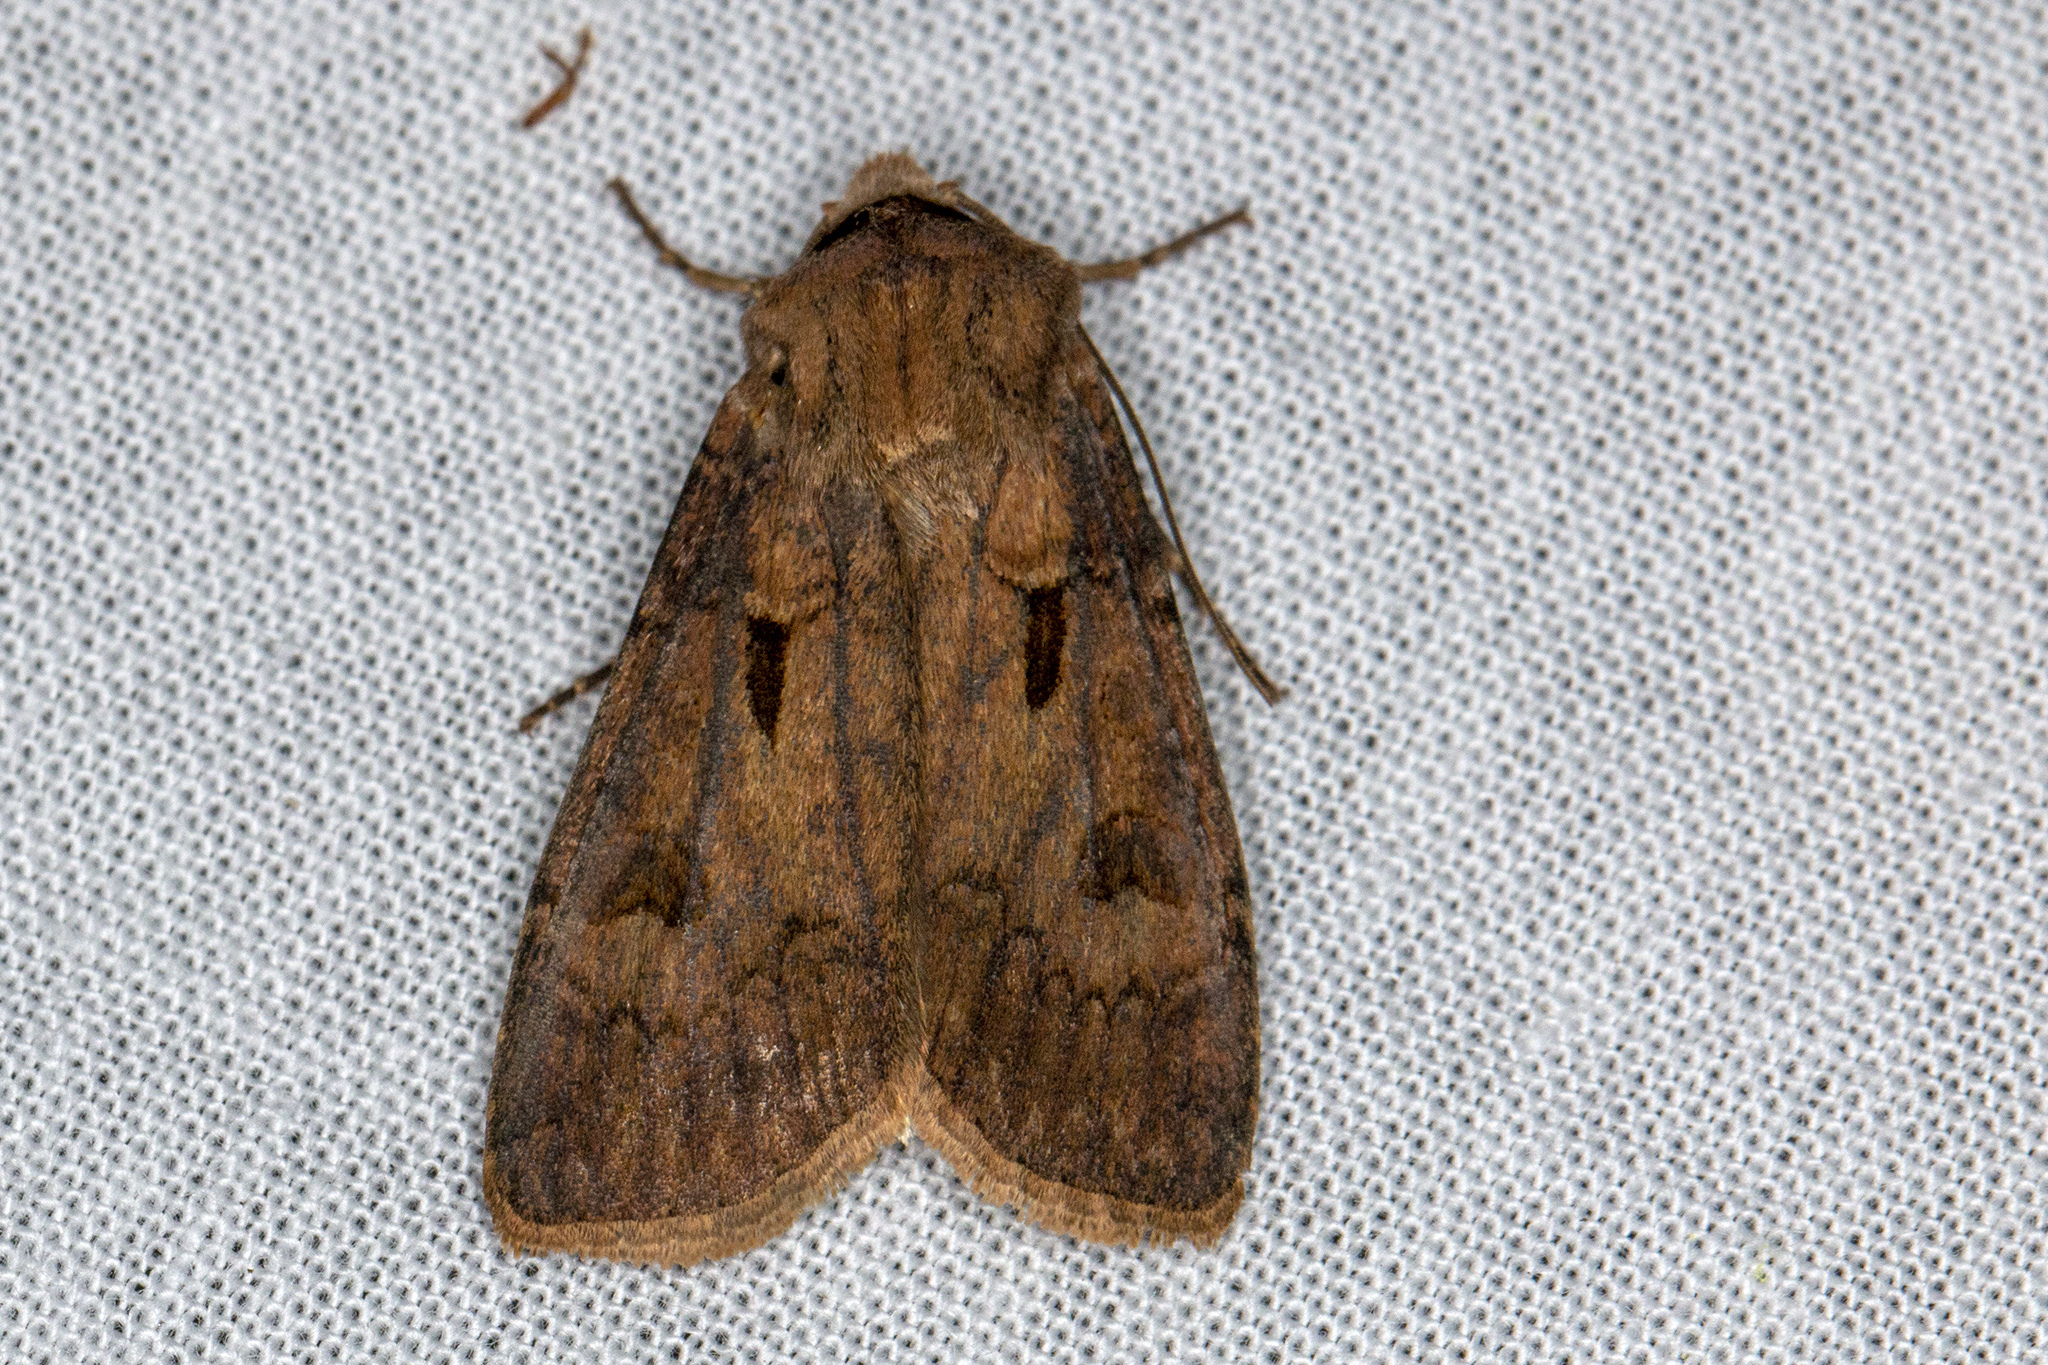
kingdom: Animalia
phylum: Arthropoda
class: Insecta
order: Lepidoptera
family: Noctuidae
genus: Agrotis
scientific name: Agrotis exclamationis
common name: Heart and dart
